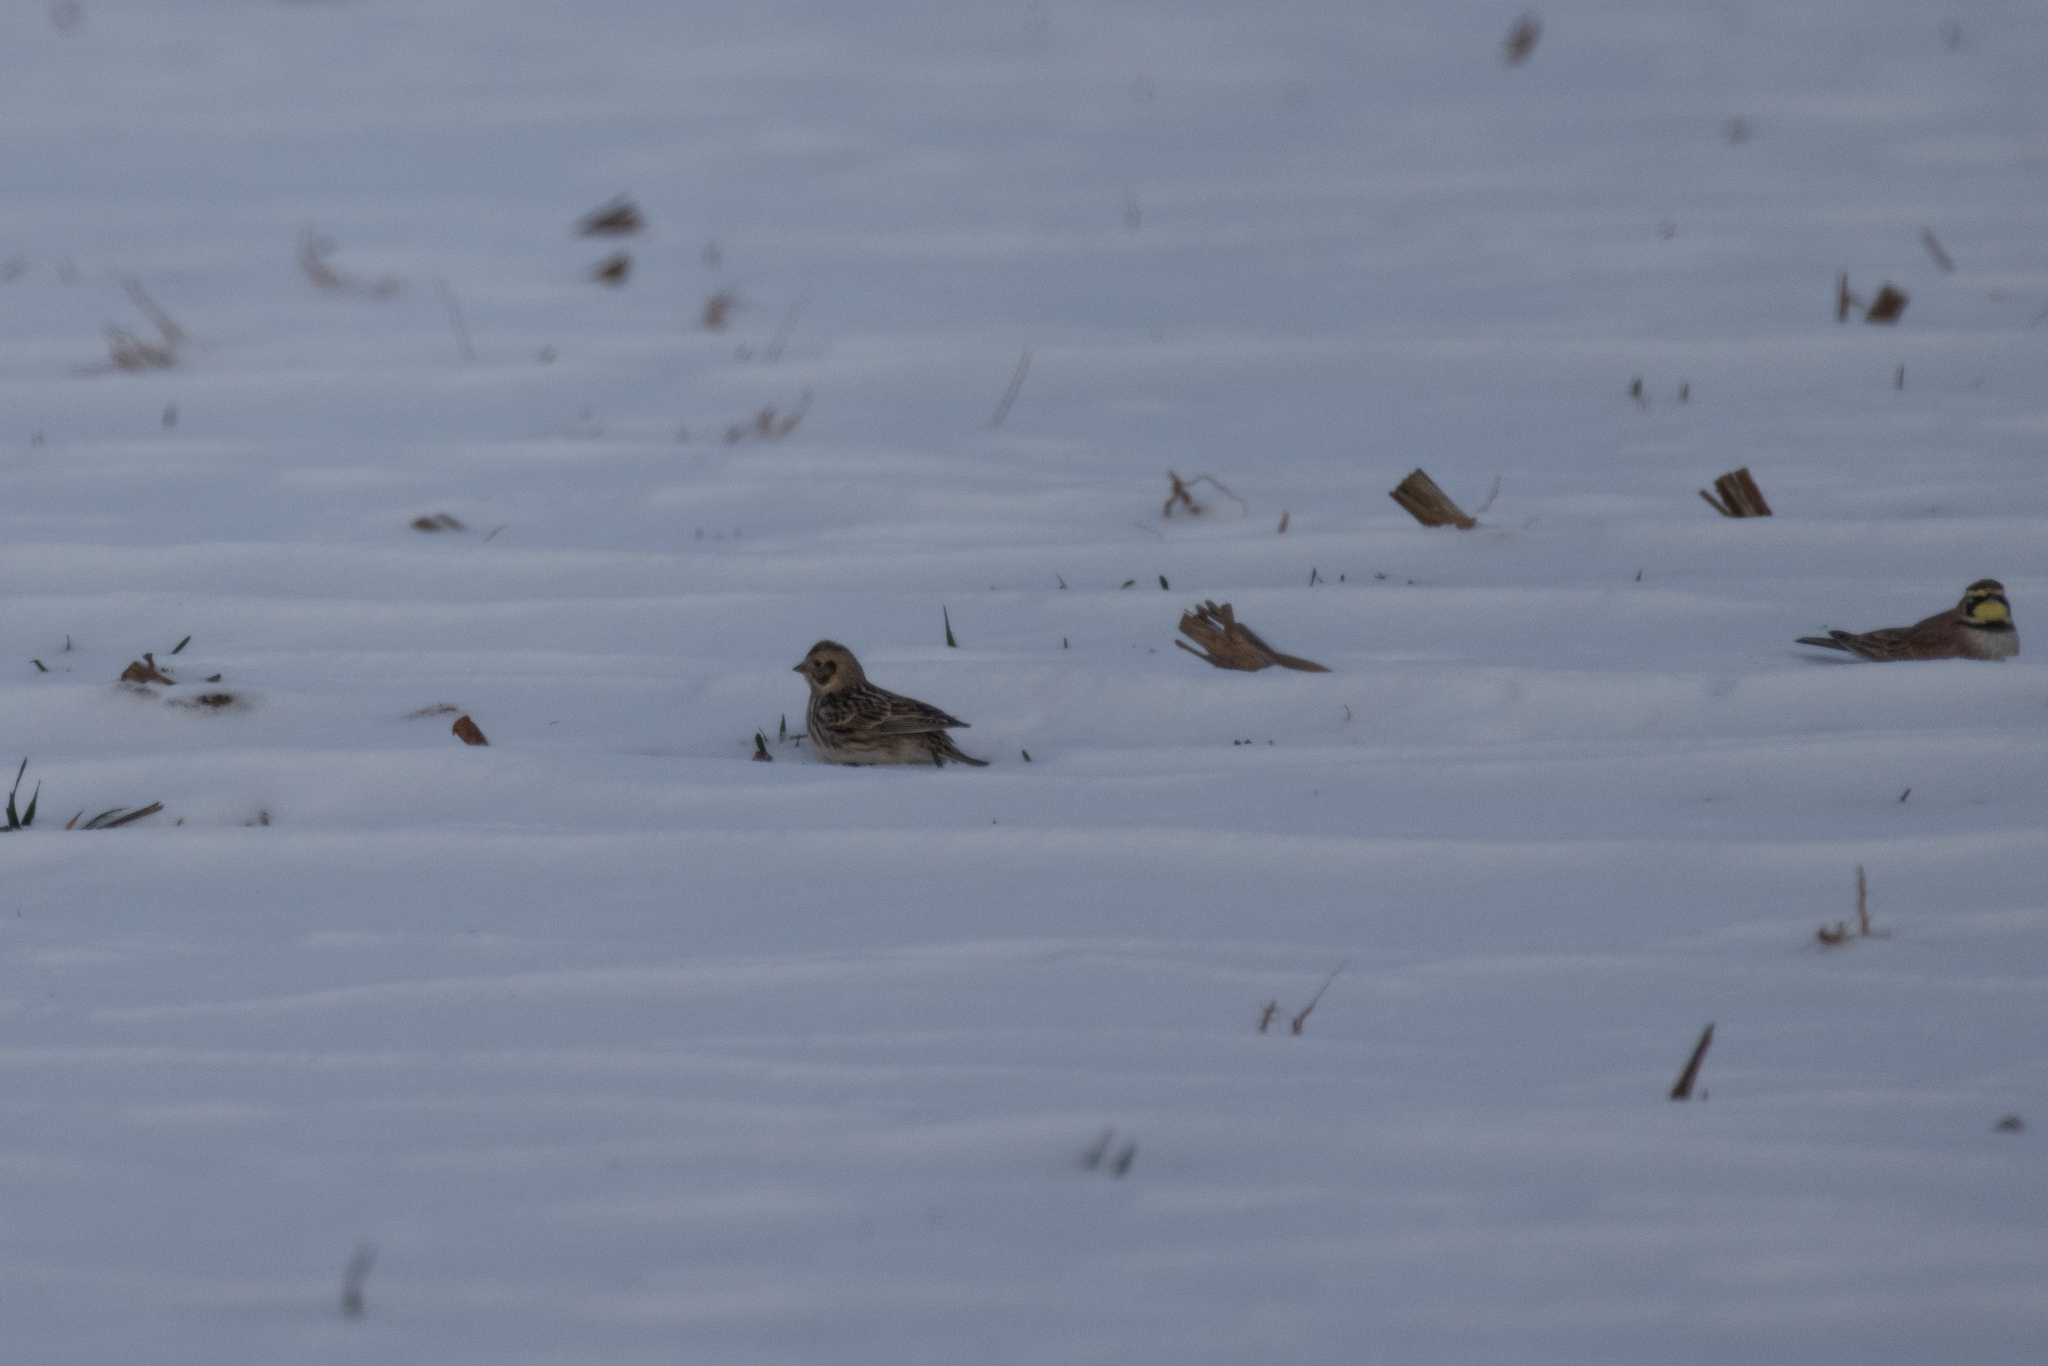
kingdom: Animalia
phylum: Chordata
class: Aves
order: Passeriformes
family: Calcariidae
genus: Calcarius
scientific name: Calcarius lapponicus
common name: Lapland longspur
